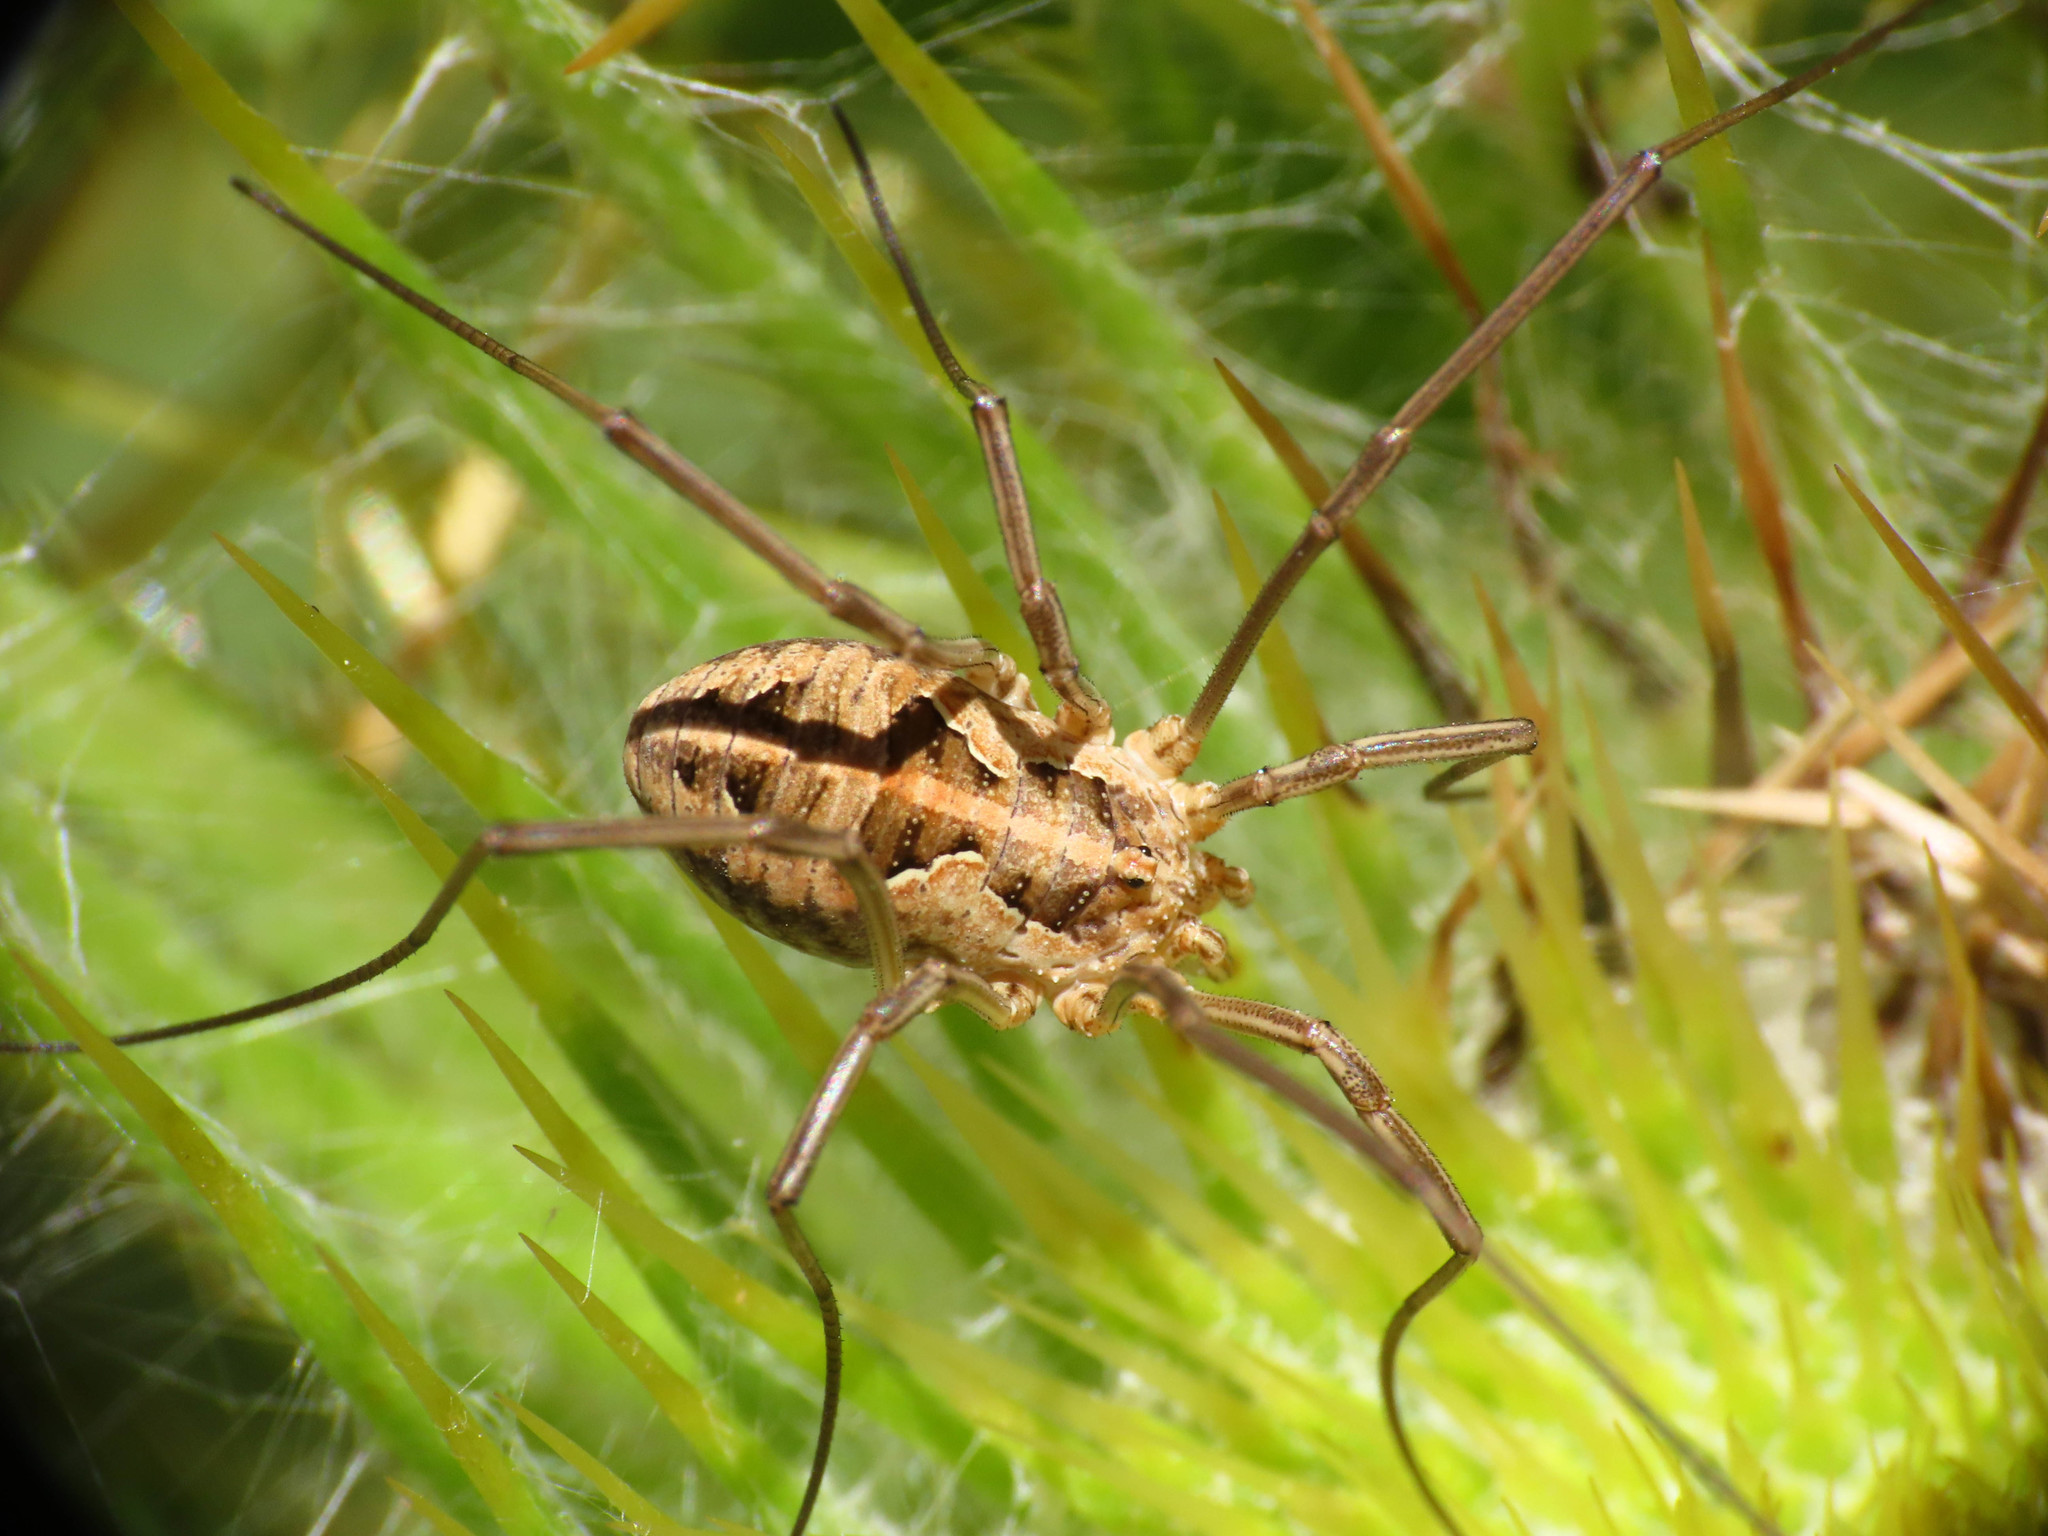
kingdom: Animalia
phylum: Arthropoda
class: Arachnida
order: Opiliones
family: Phalangiidae
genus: Metaphalangium
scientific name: Metaphalangium cirtanum
